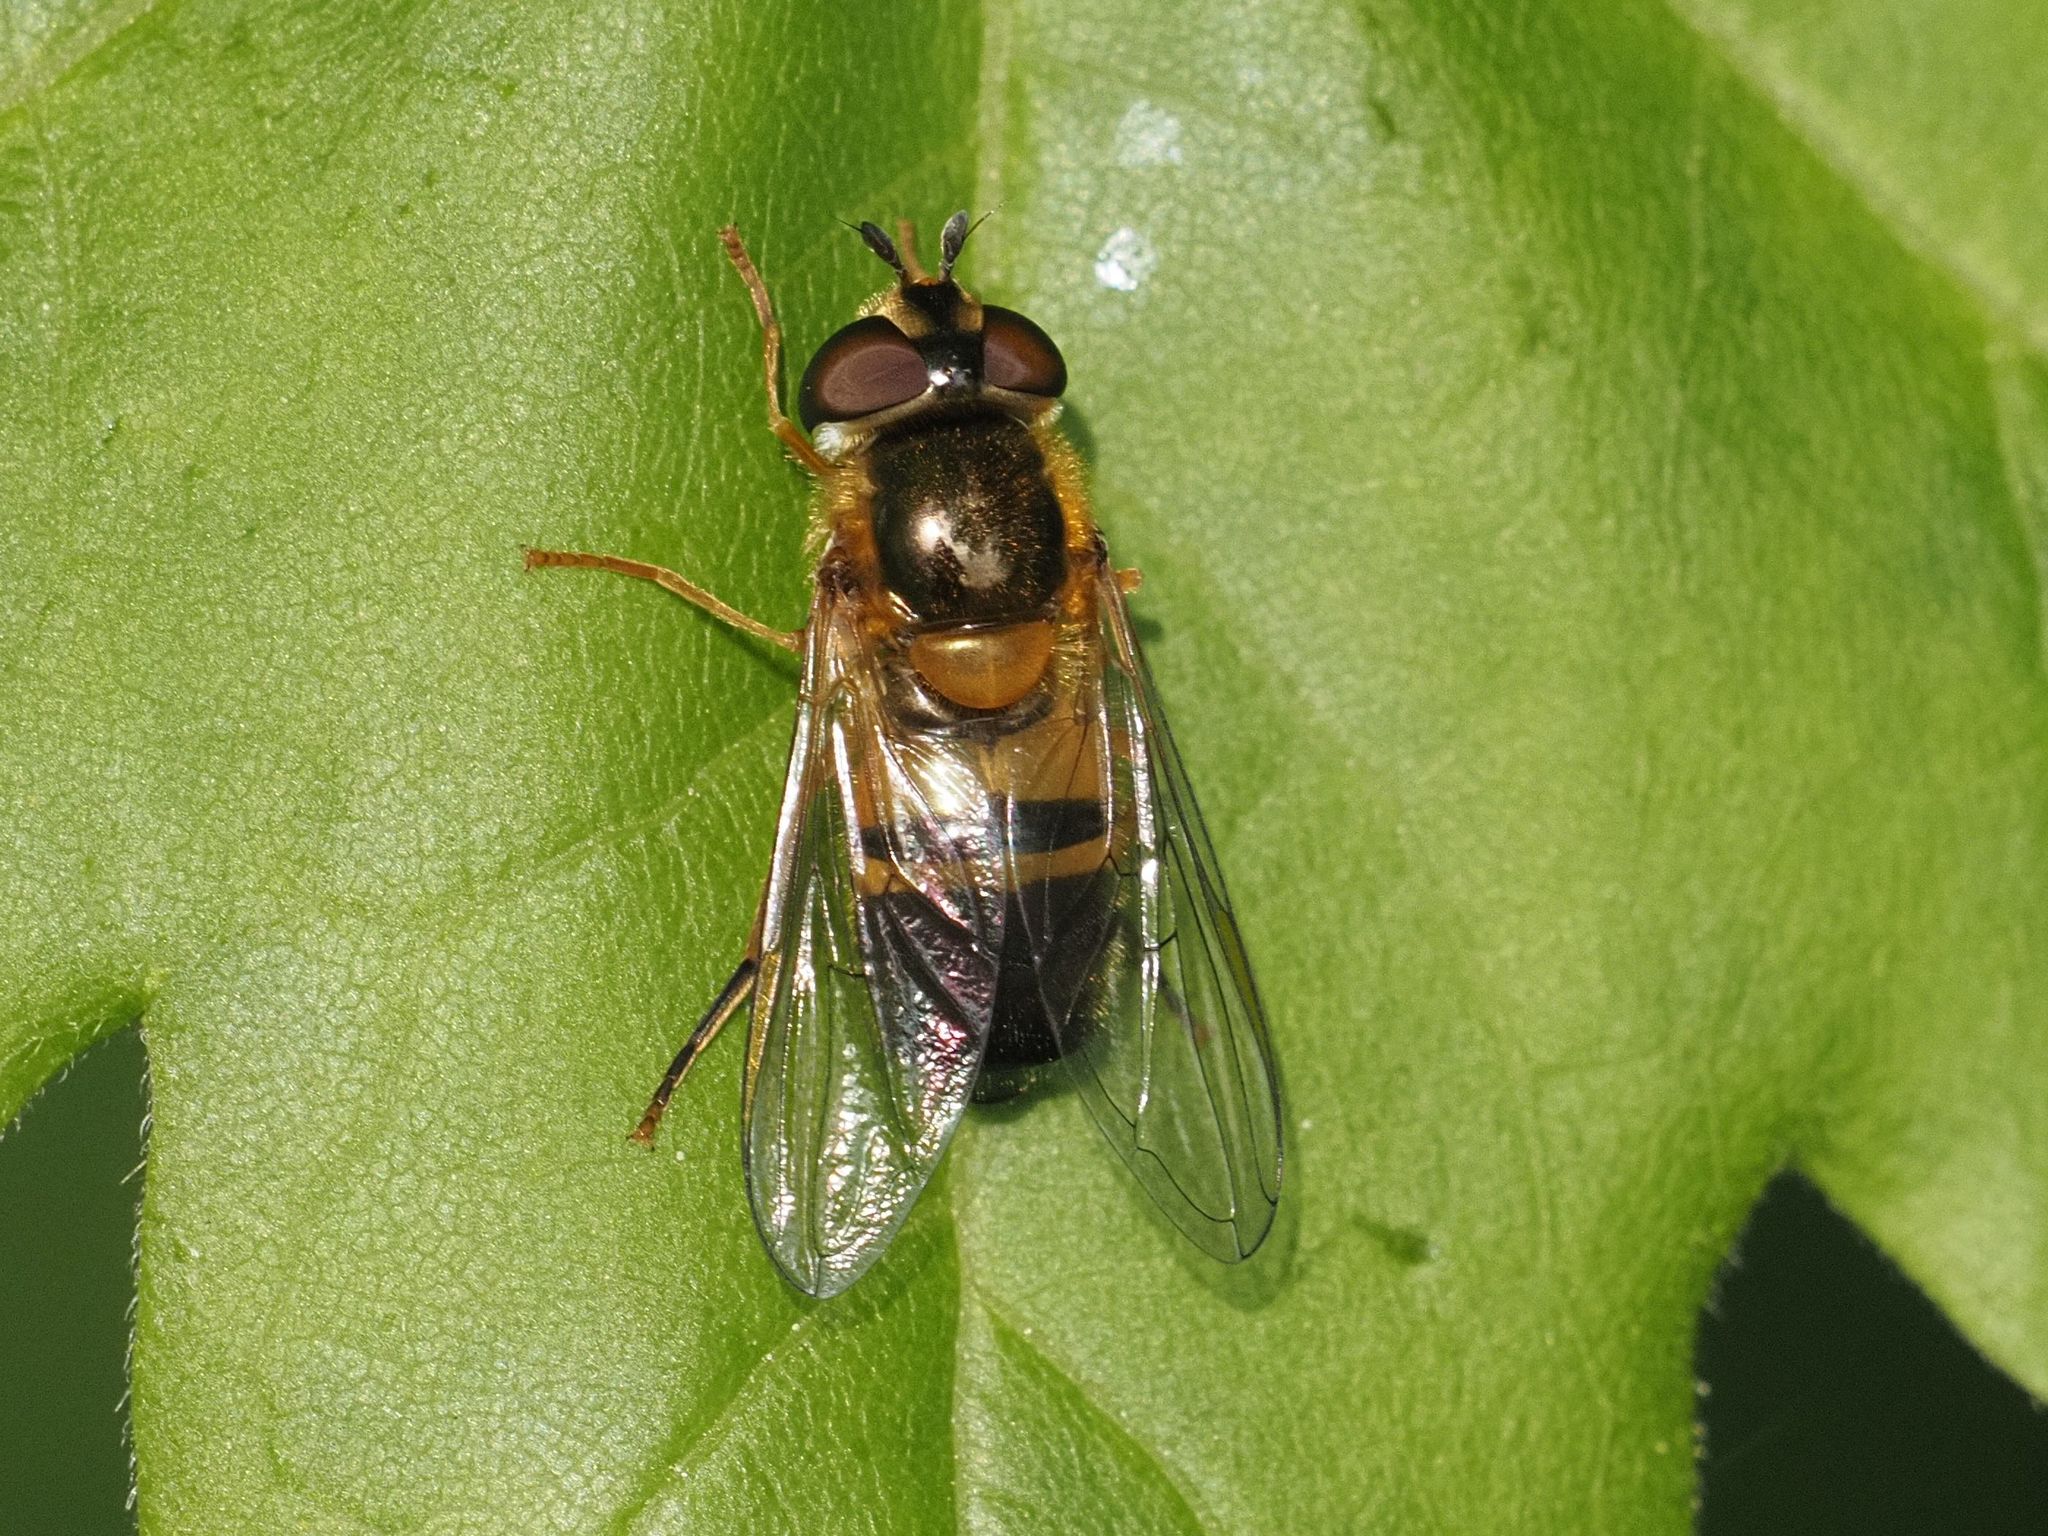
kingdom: Animalia
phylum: Arthropoda
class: Insecta
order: Diptera
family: Syrphidae
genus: Epistrophe
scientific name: Epistrophe eligans
